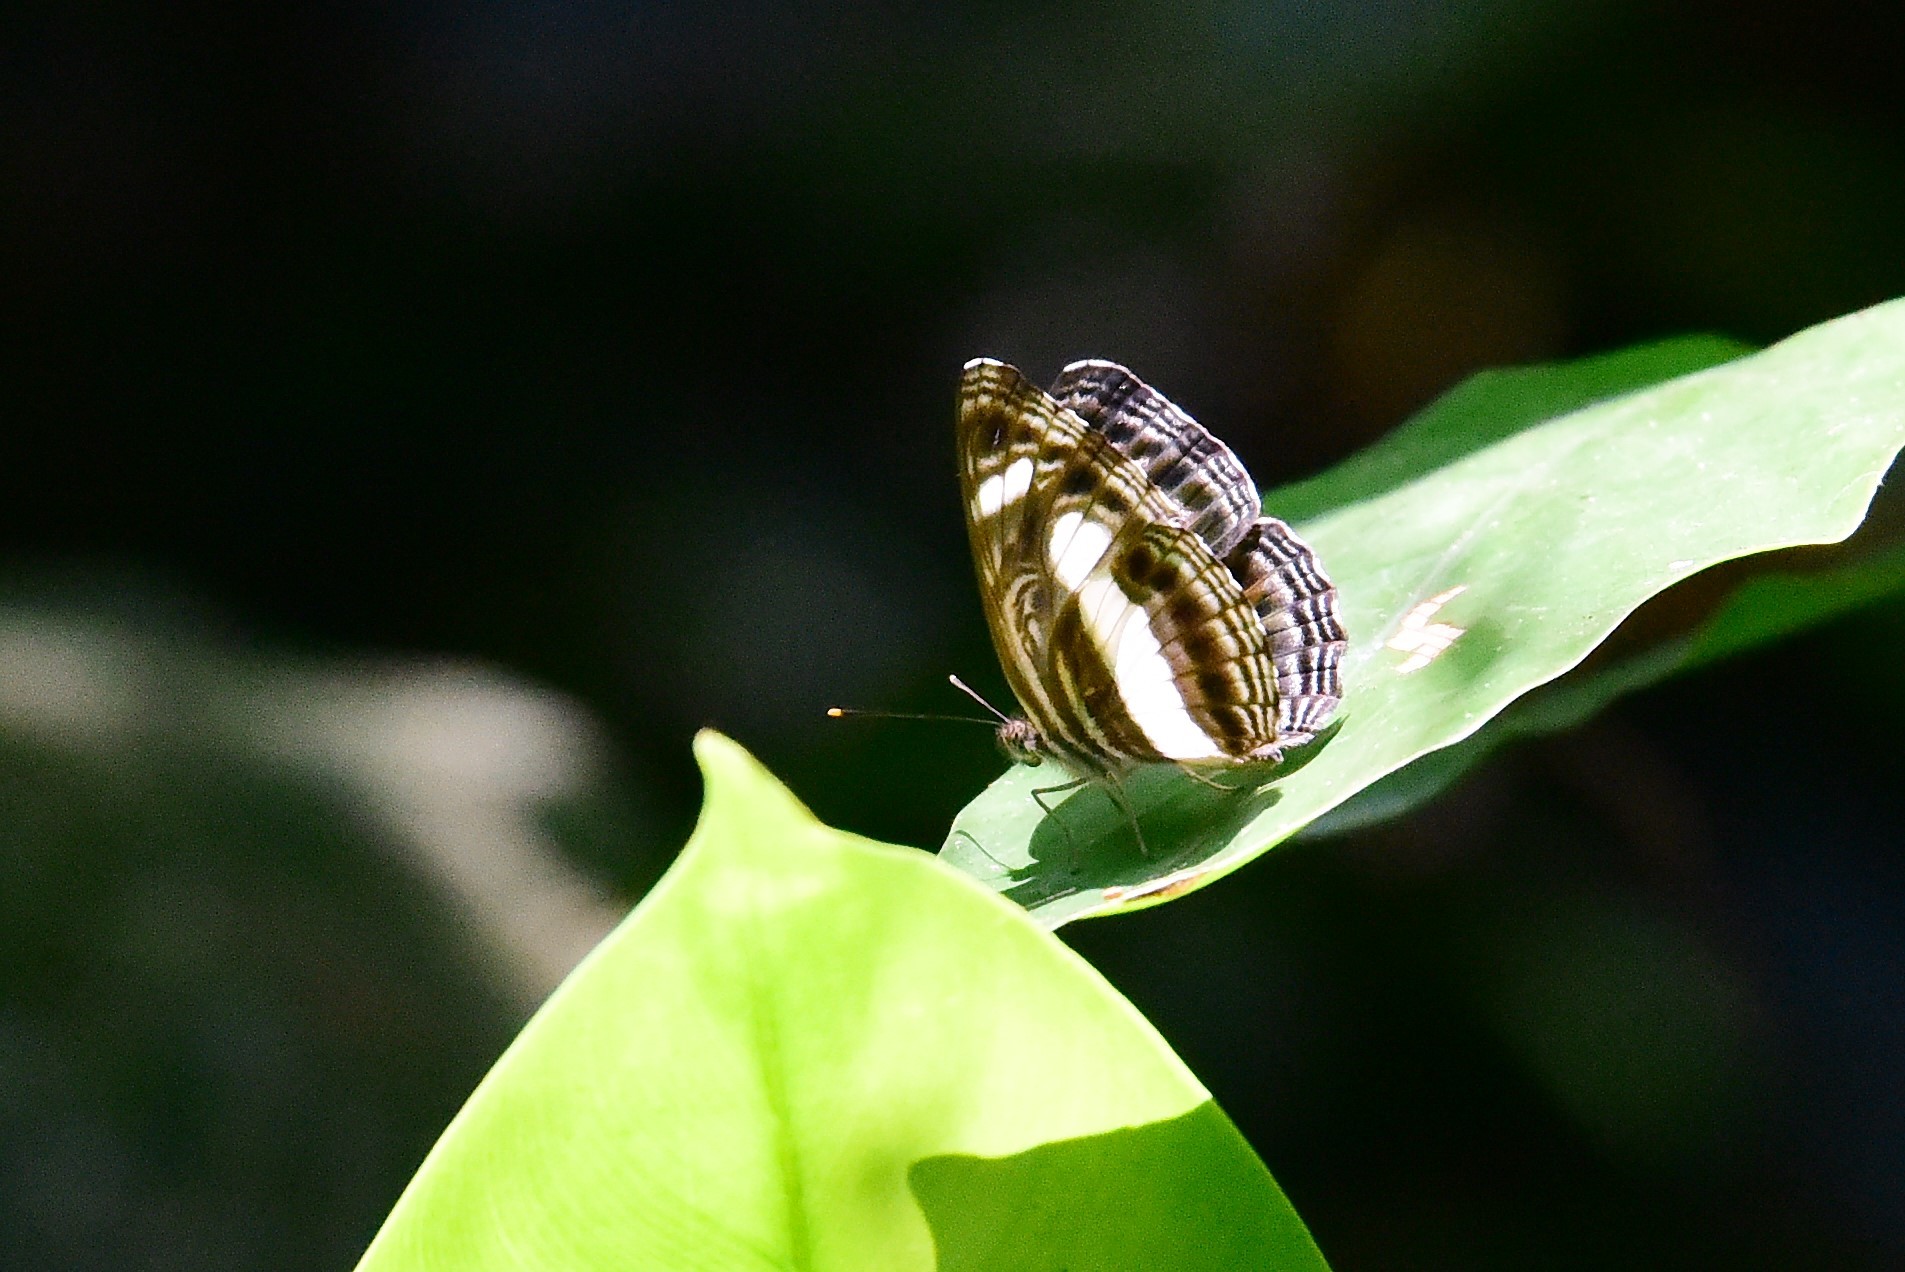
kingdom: Animalia
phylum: Arthropoda
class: Insecta
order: Lepidoptera
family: Nymphalidae
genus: Neptis
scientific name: Neptis nemetes
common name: Nemetes sailer
